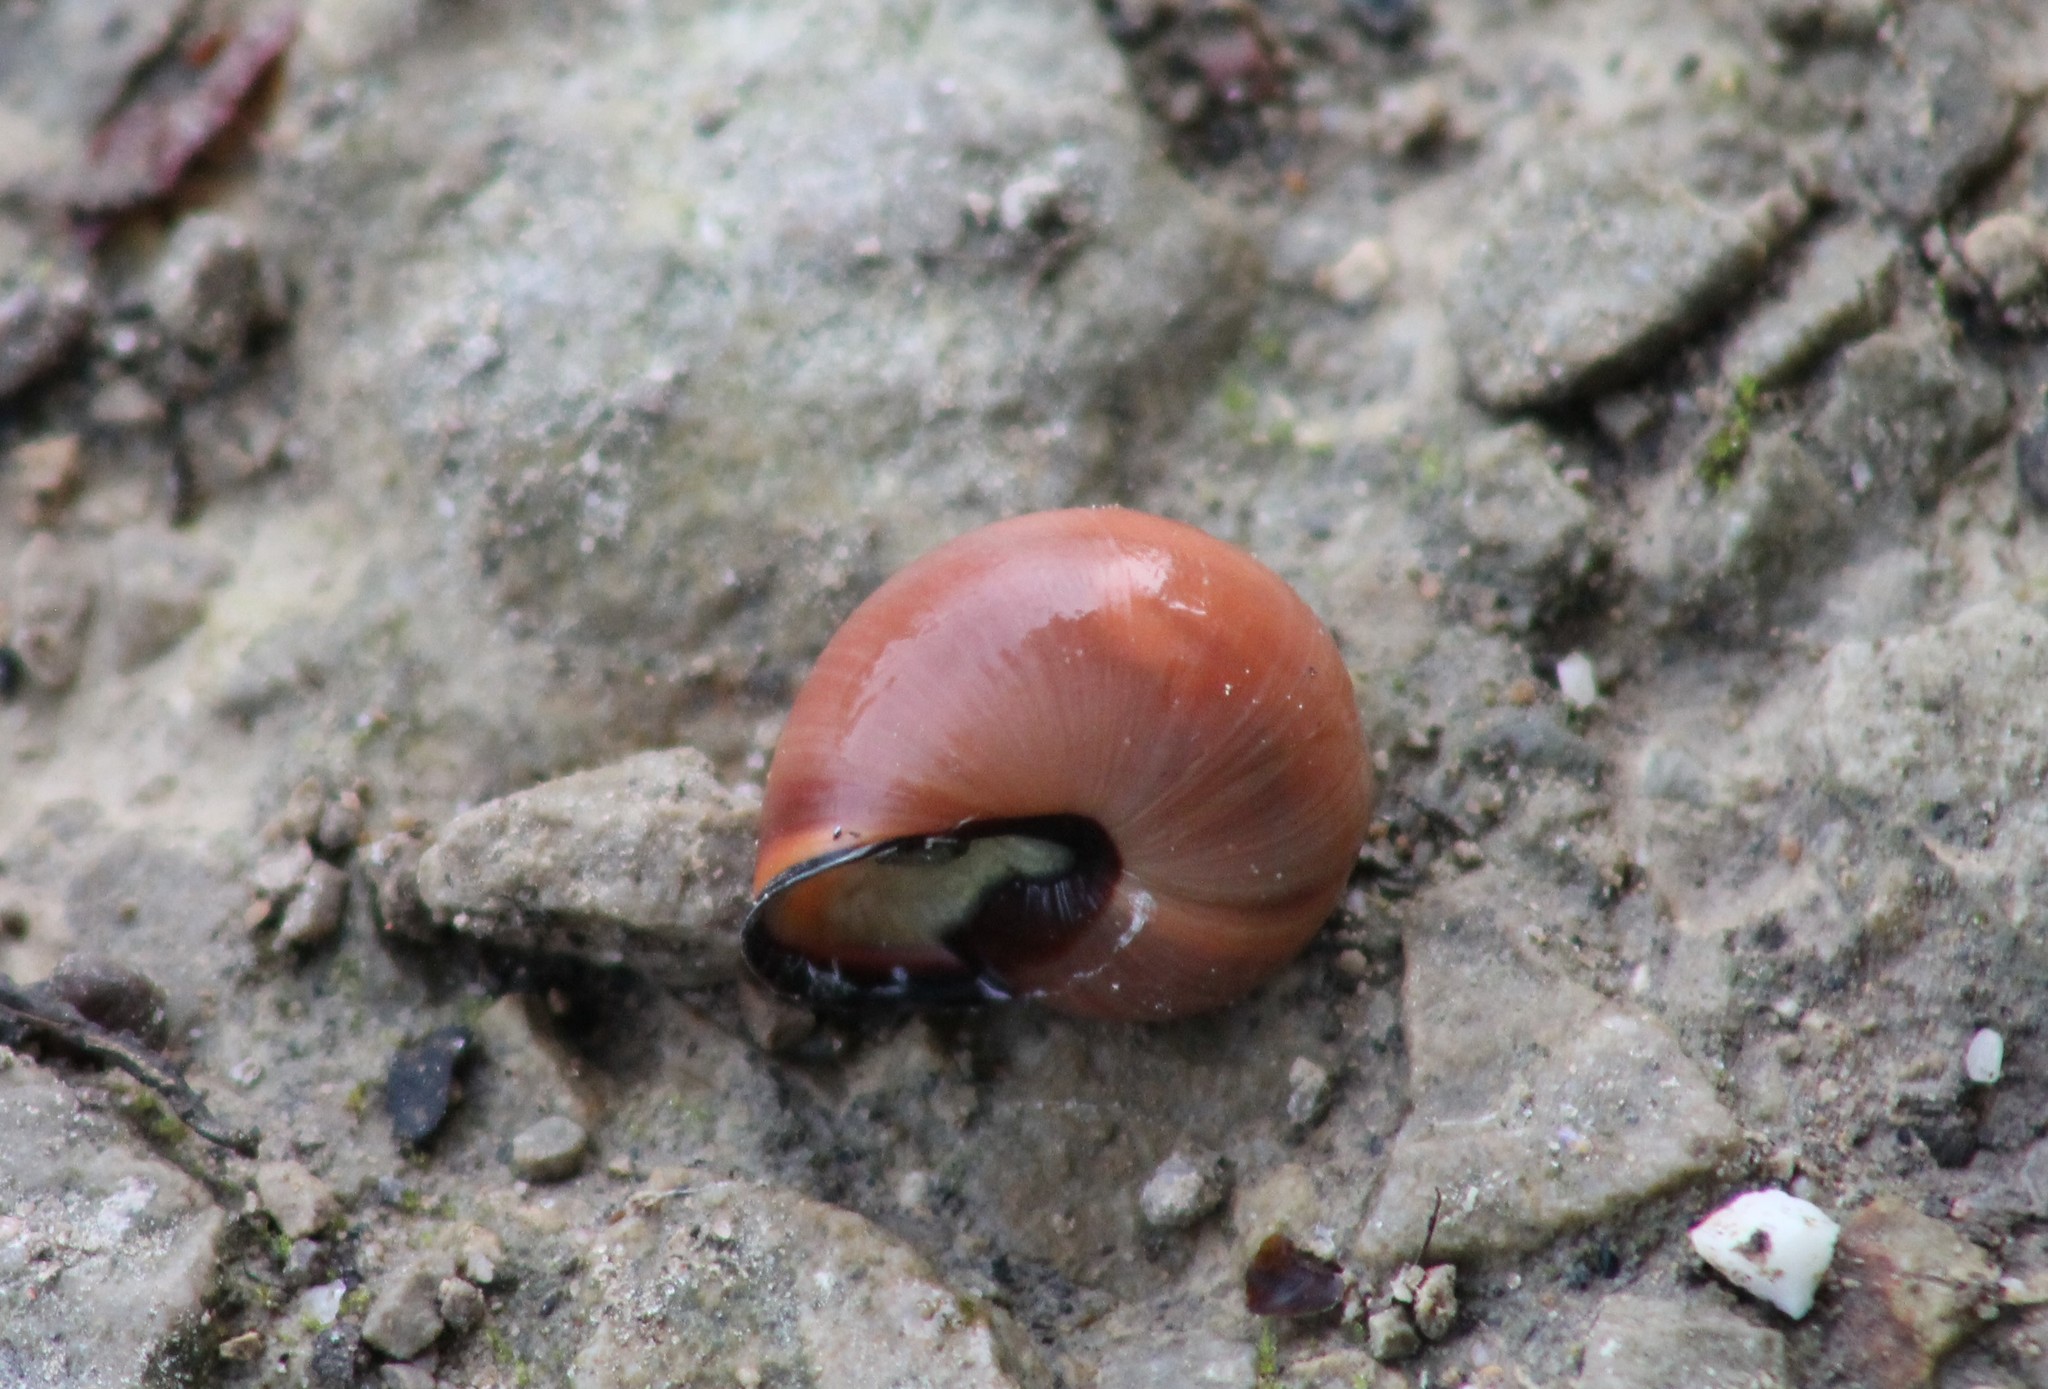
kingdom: Animalia
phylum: Mollusca
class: Gastropoda
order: Stylommatophora
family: Helicidae
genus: Cepaea
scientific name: Cepaea nemoralis
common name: Grovesnail
